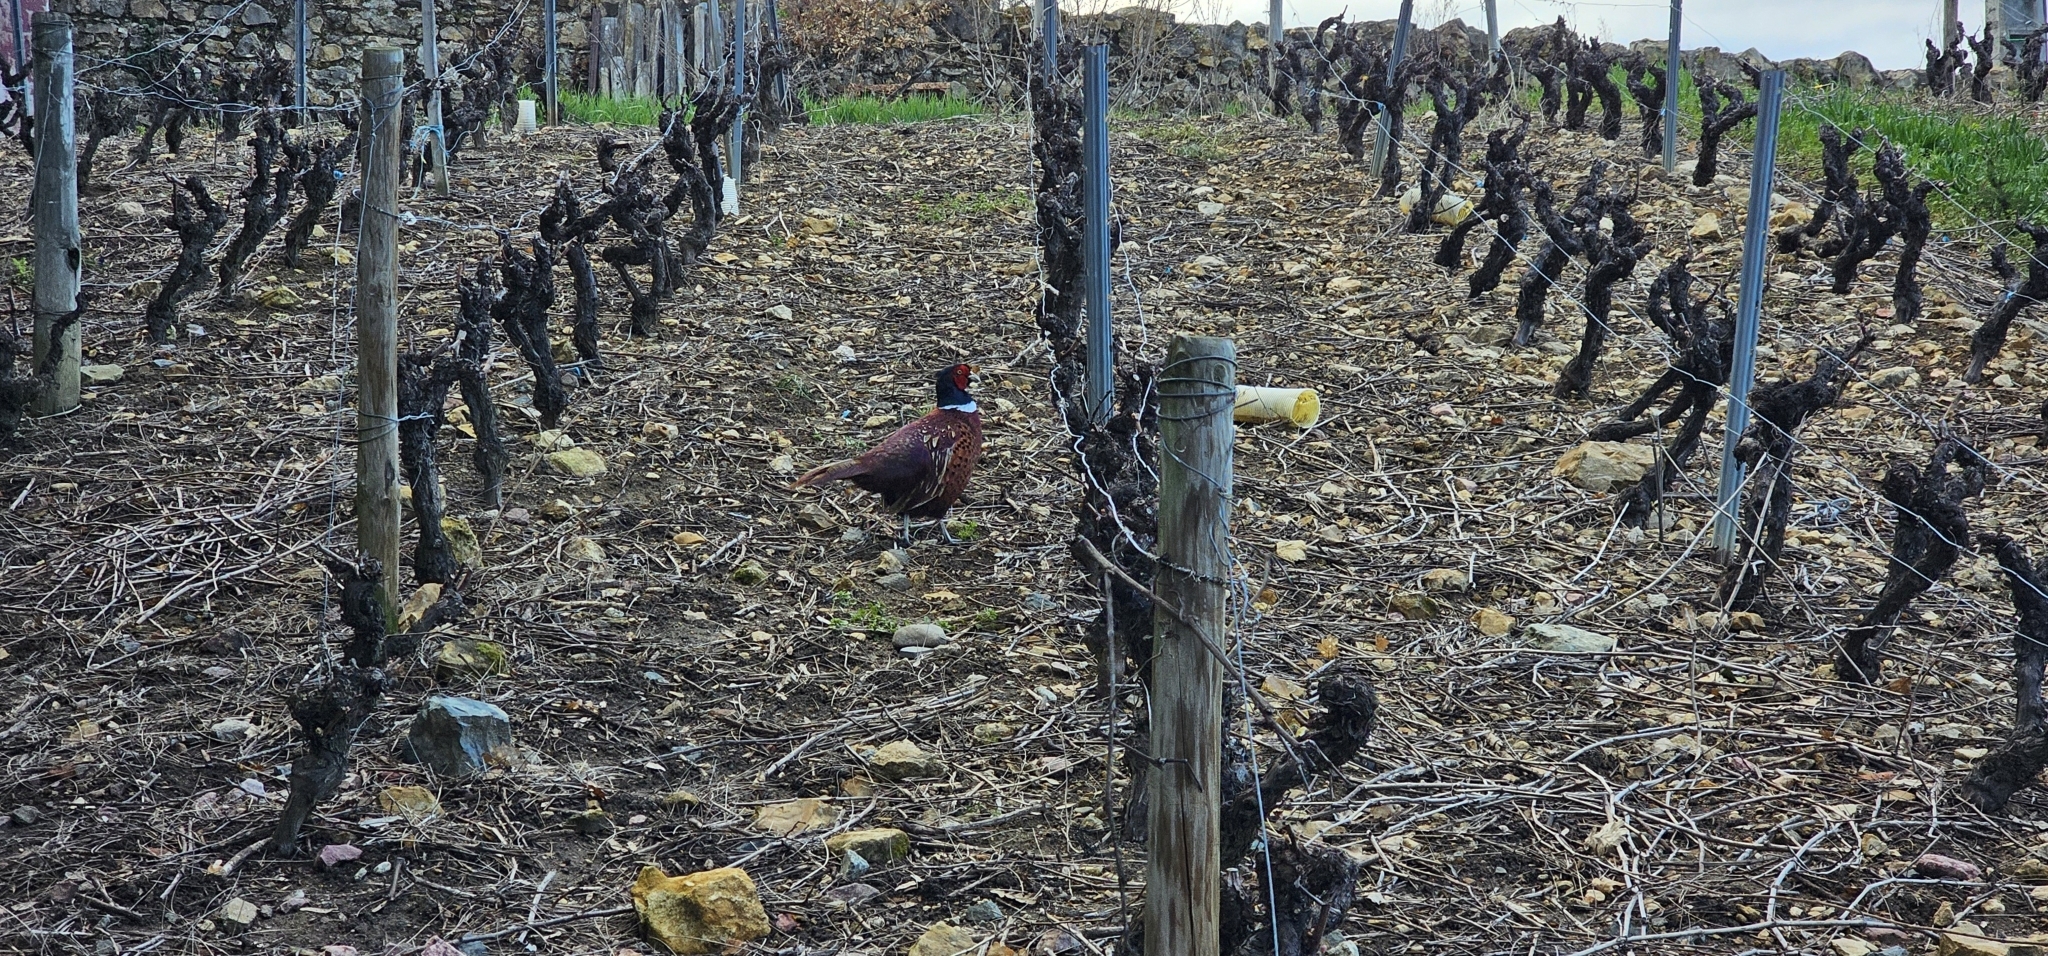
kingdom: Animalia
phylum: Chordata
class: Aves
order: Galliformes
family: Phasianidae
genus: Phasianus
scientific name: Phasianus colchicus
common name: Common pheasant
